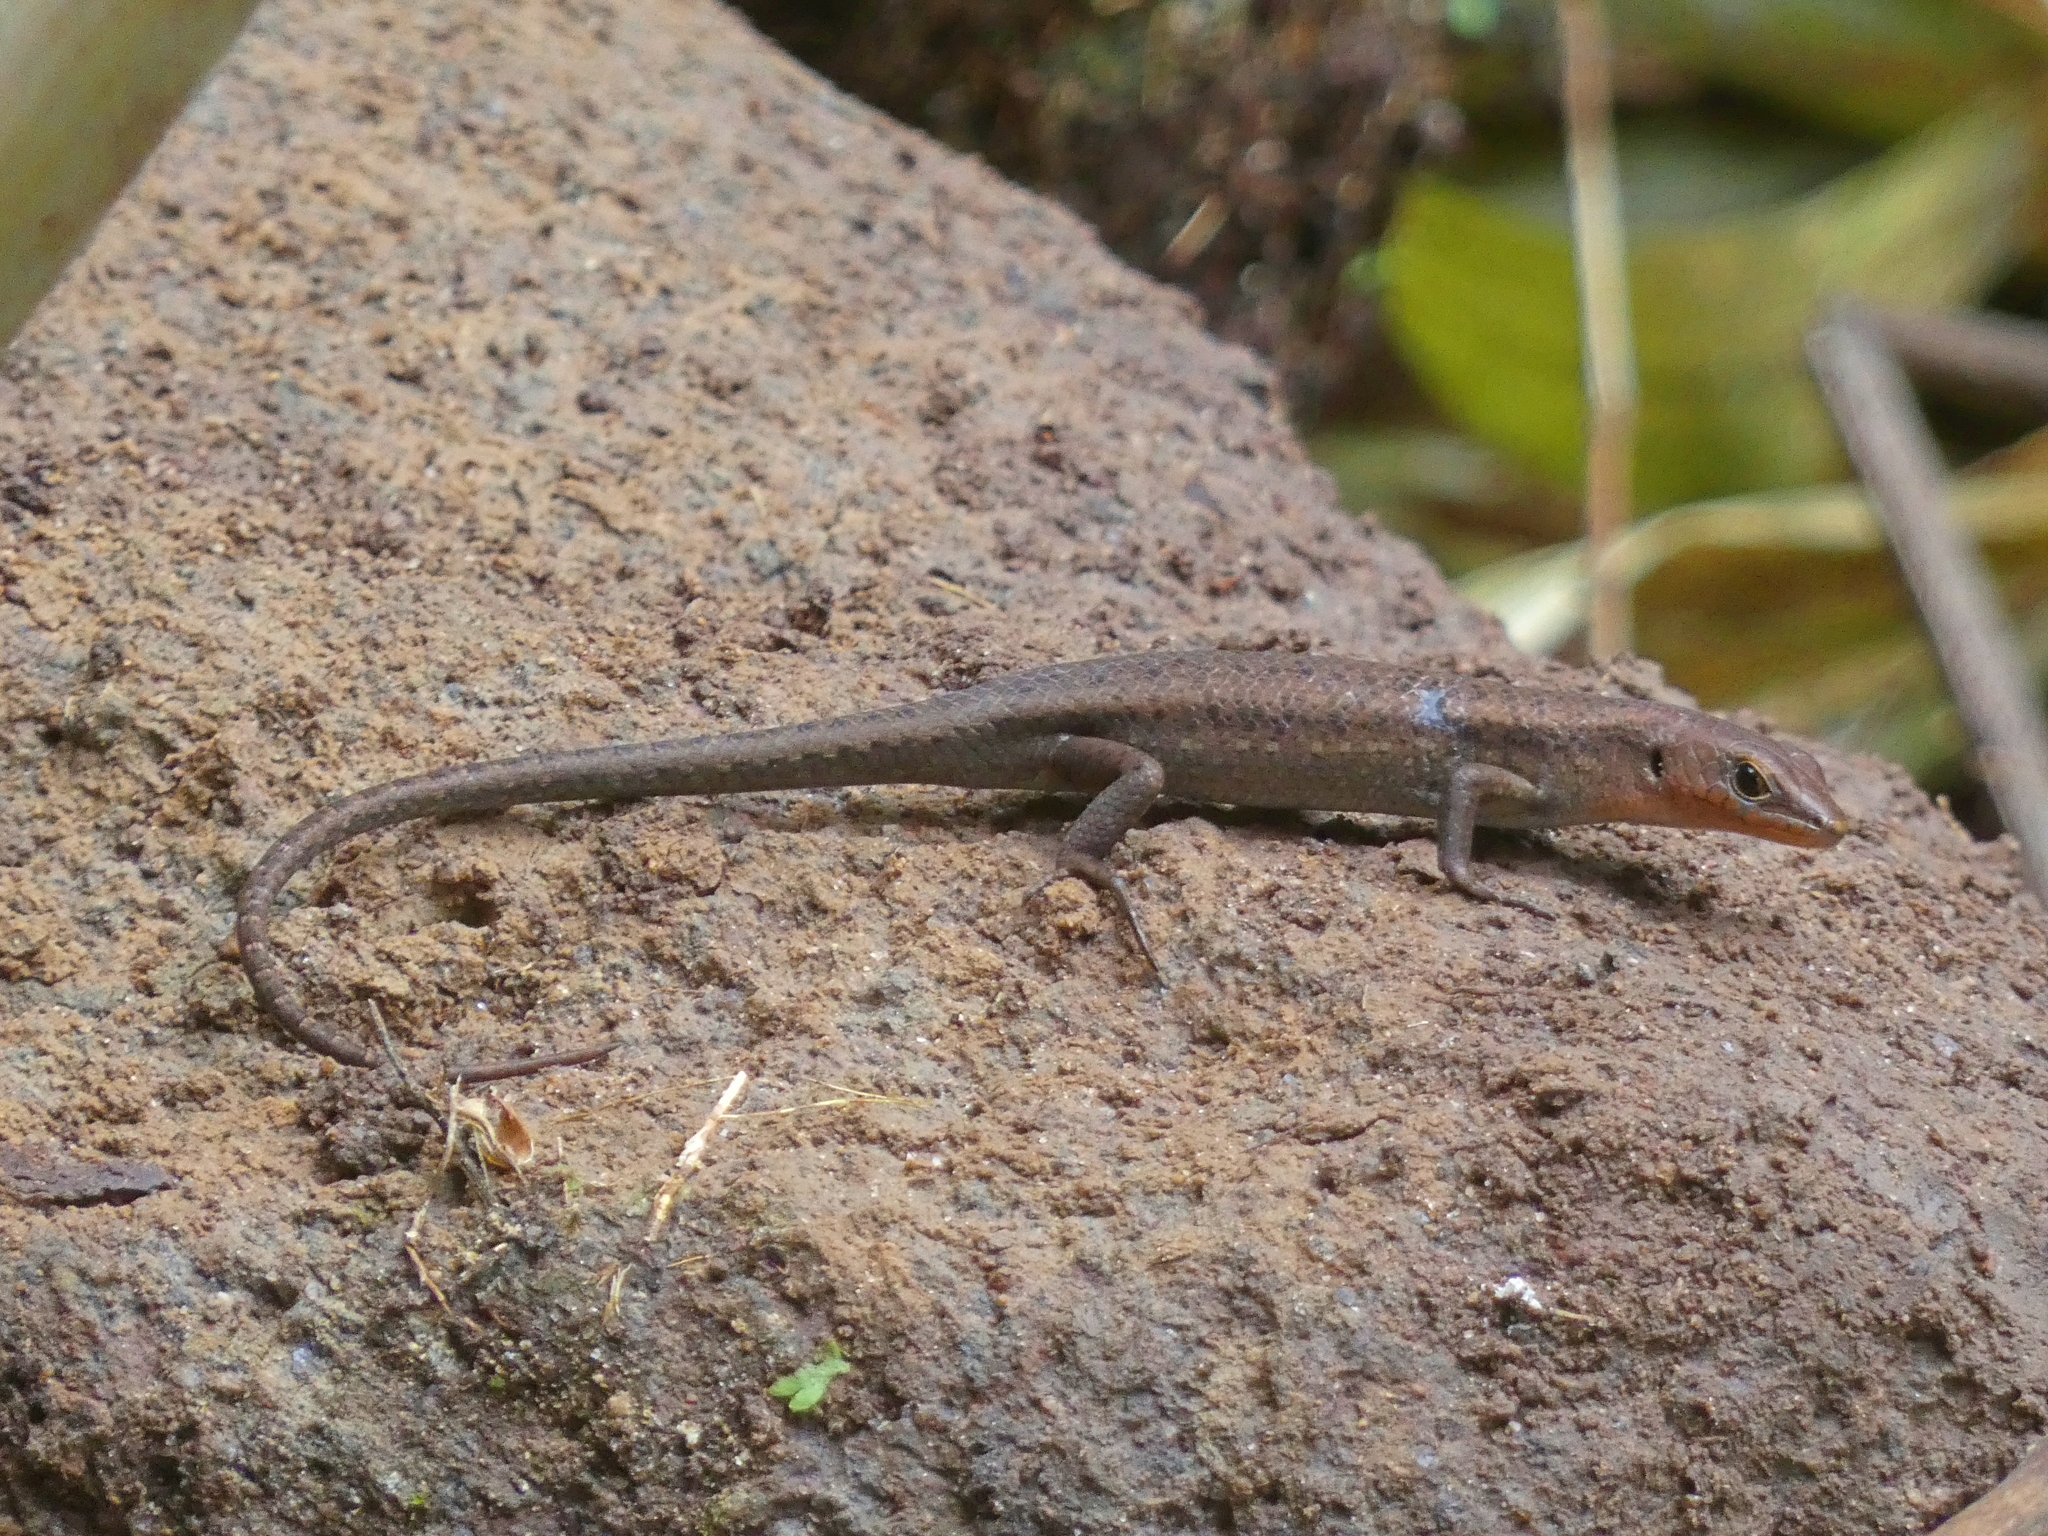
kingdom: Animalia
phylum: Chordata
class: Squamata
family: Scincidae
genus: Carlia
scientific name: Carlia crypta
